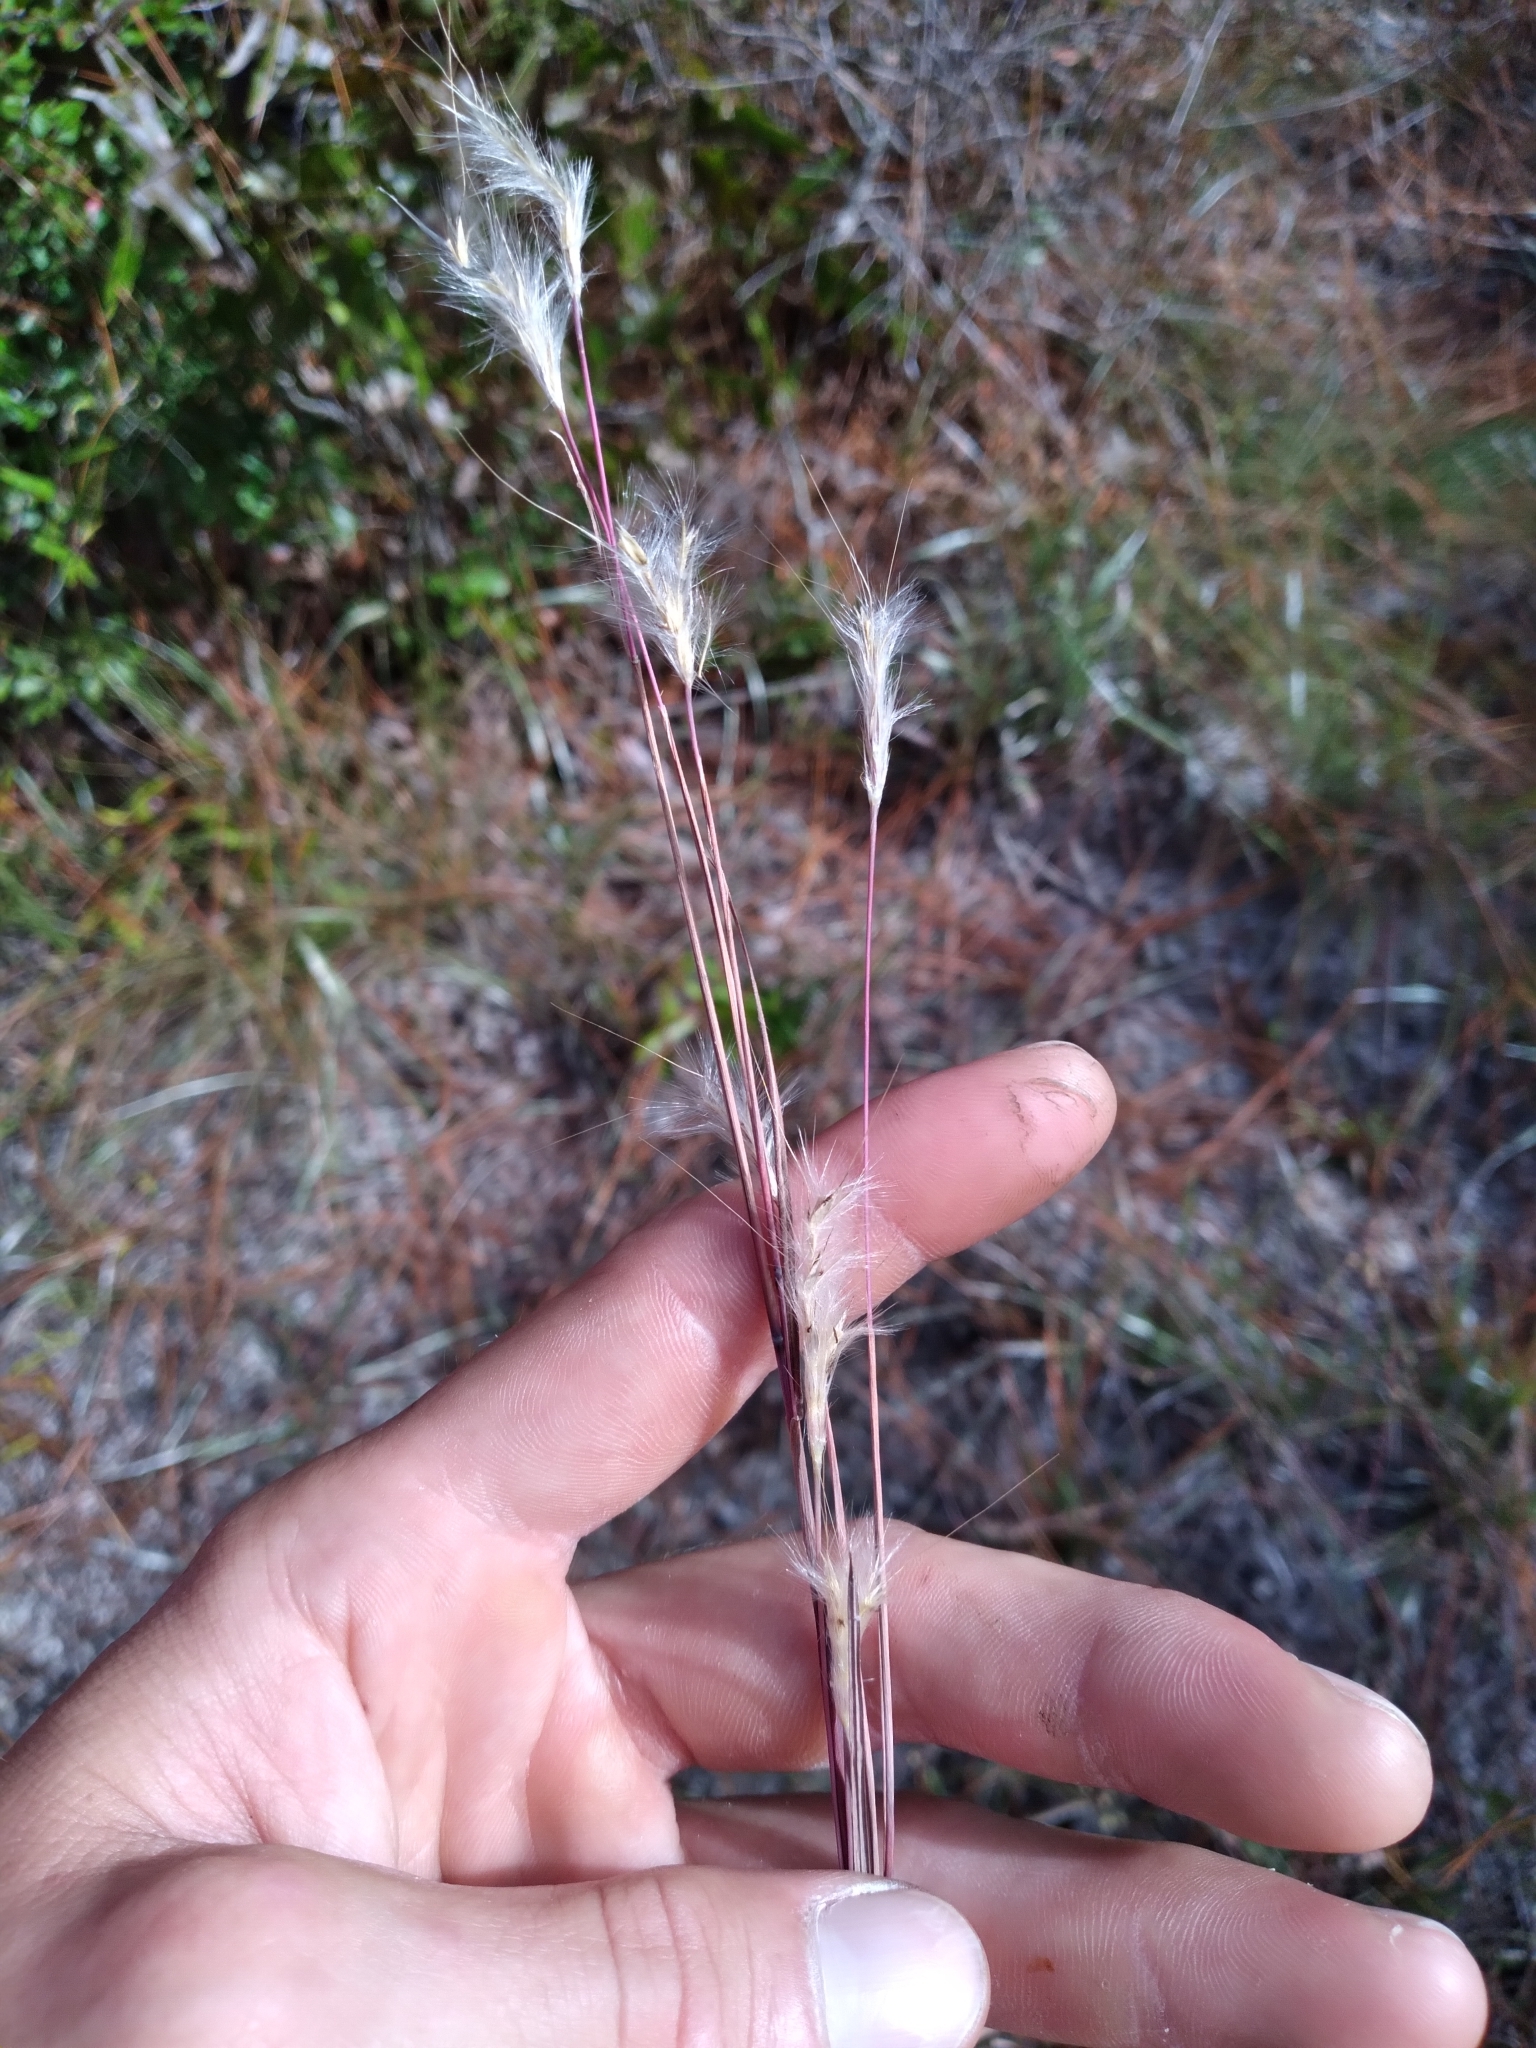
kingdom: Plantae
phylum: Tracheophyta
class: Liliopsida
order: Poales
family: Poaceae
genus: Andropogon
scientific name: Andropogon ternarius
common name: Split bluestem
